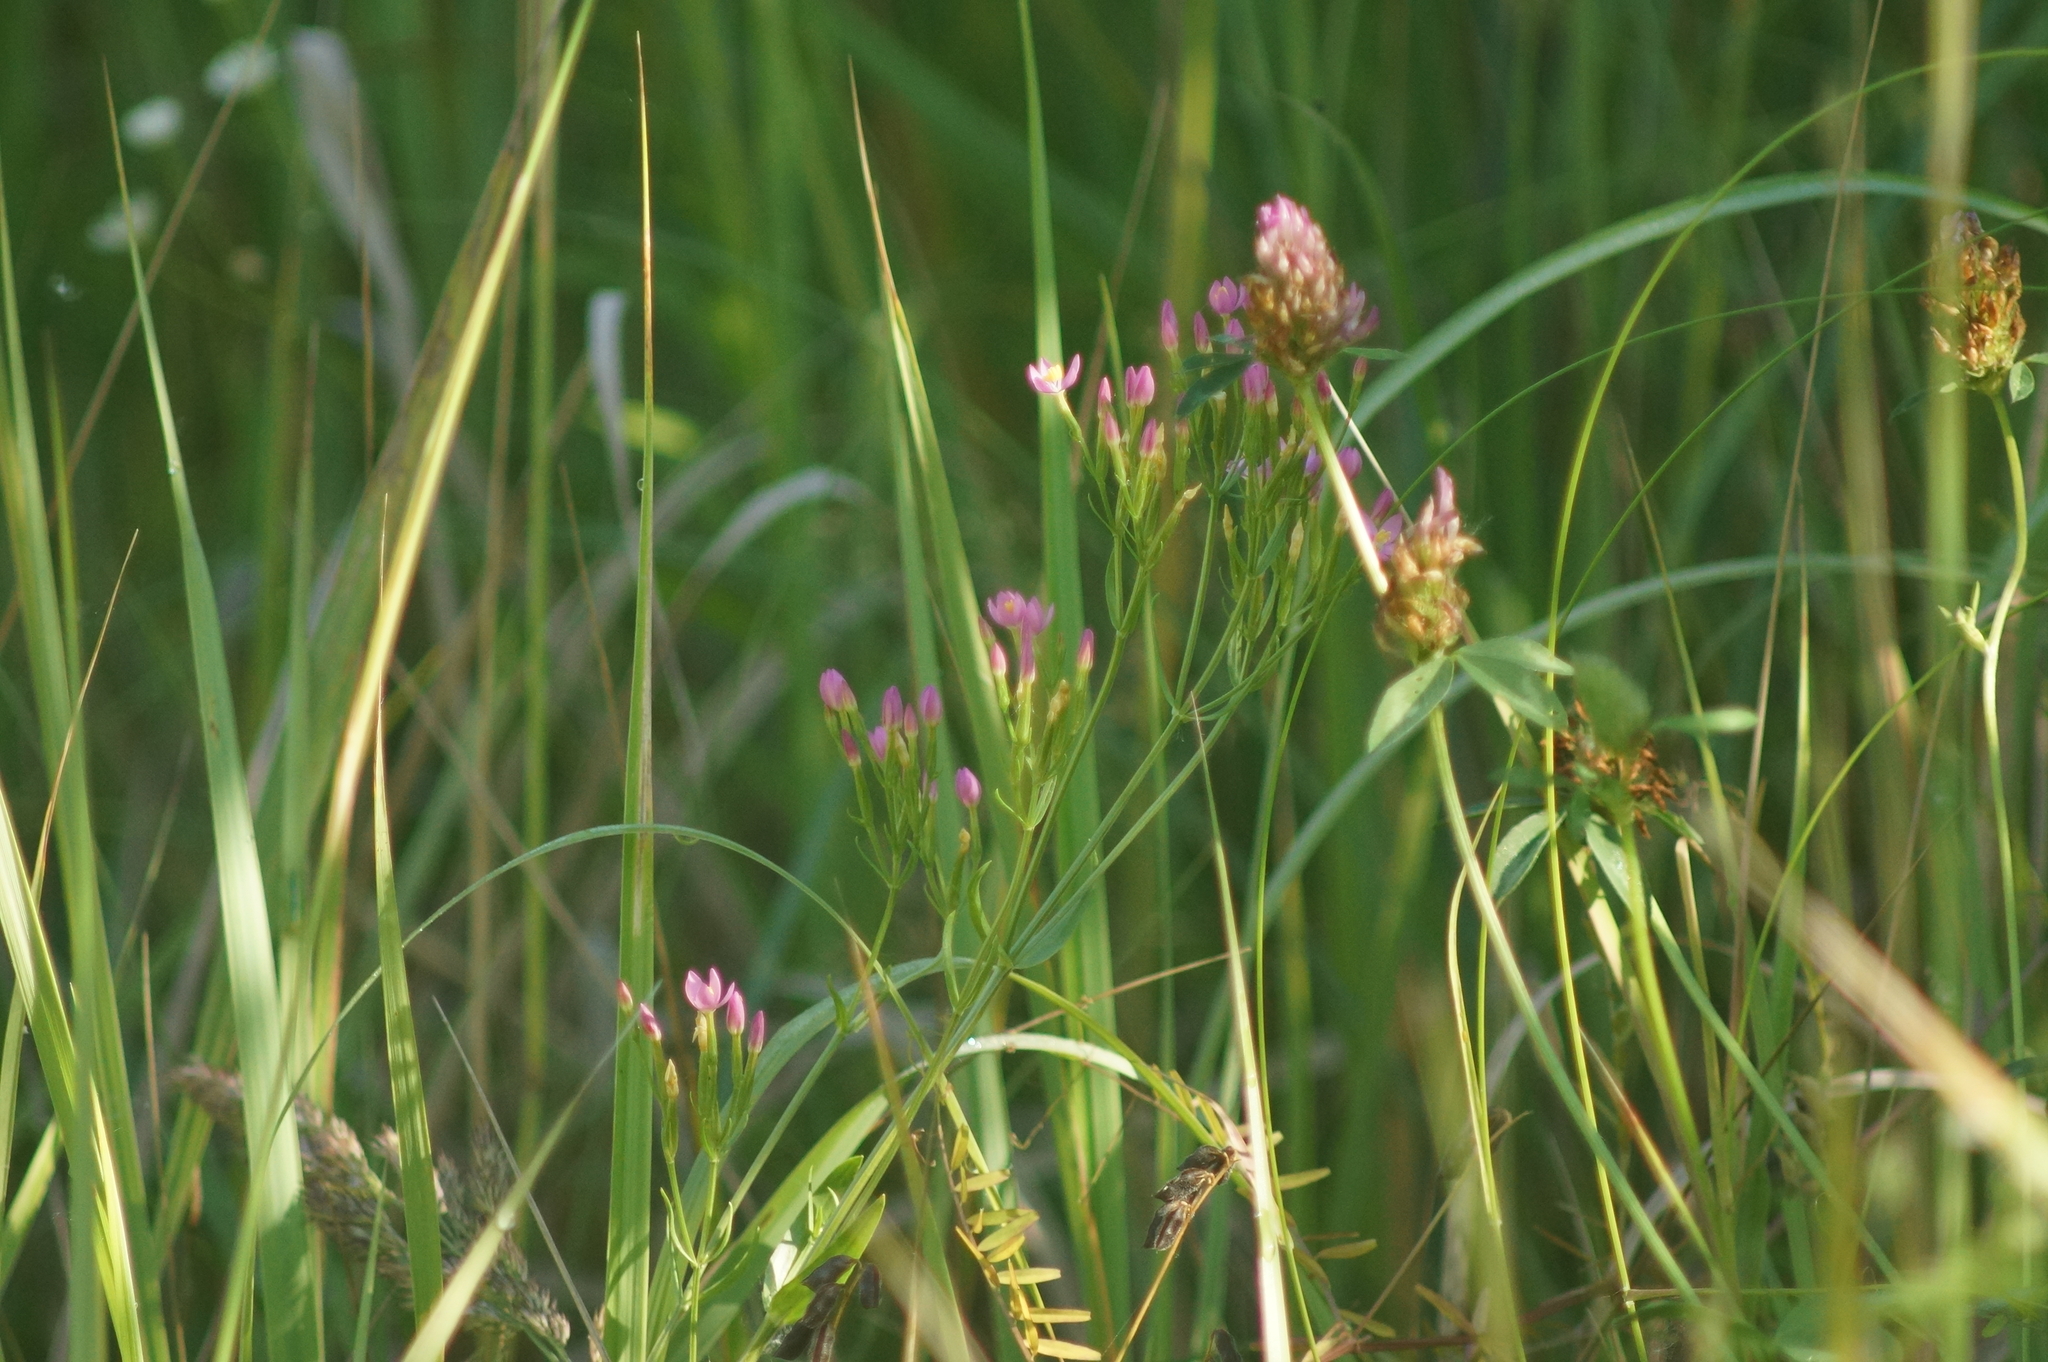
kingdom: Plantae
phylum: Tracheophyta
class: Magnoliopsida
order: Gentianales
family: Gentianaceae
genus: Centaurium
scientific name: Centaurium erythraea
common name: Common centaury
